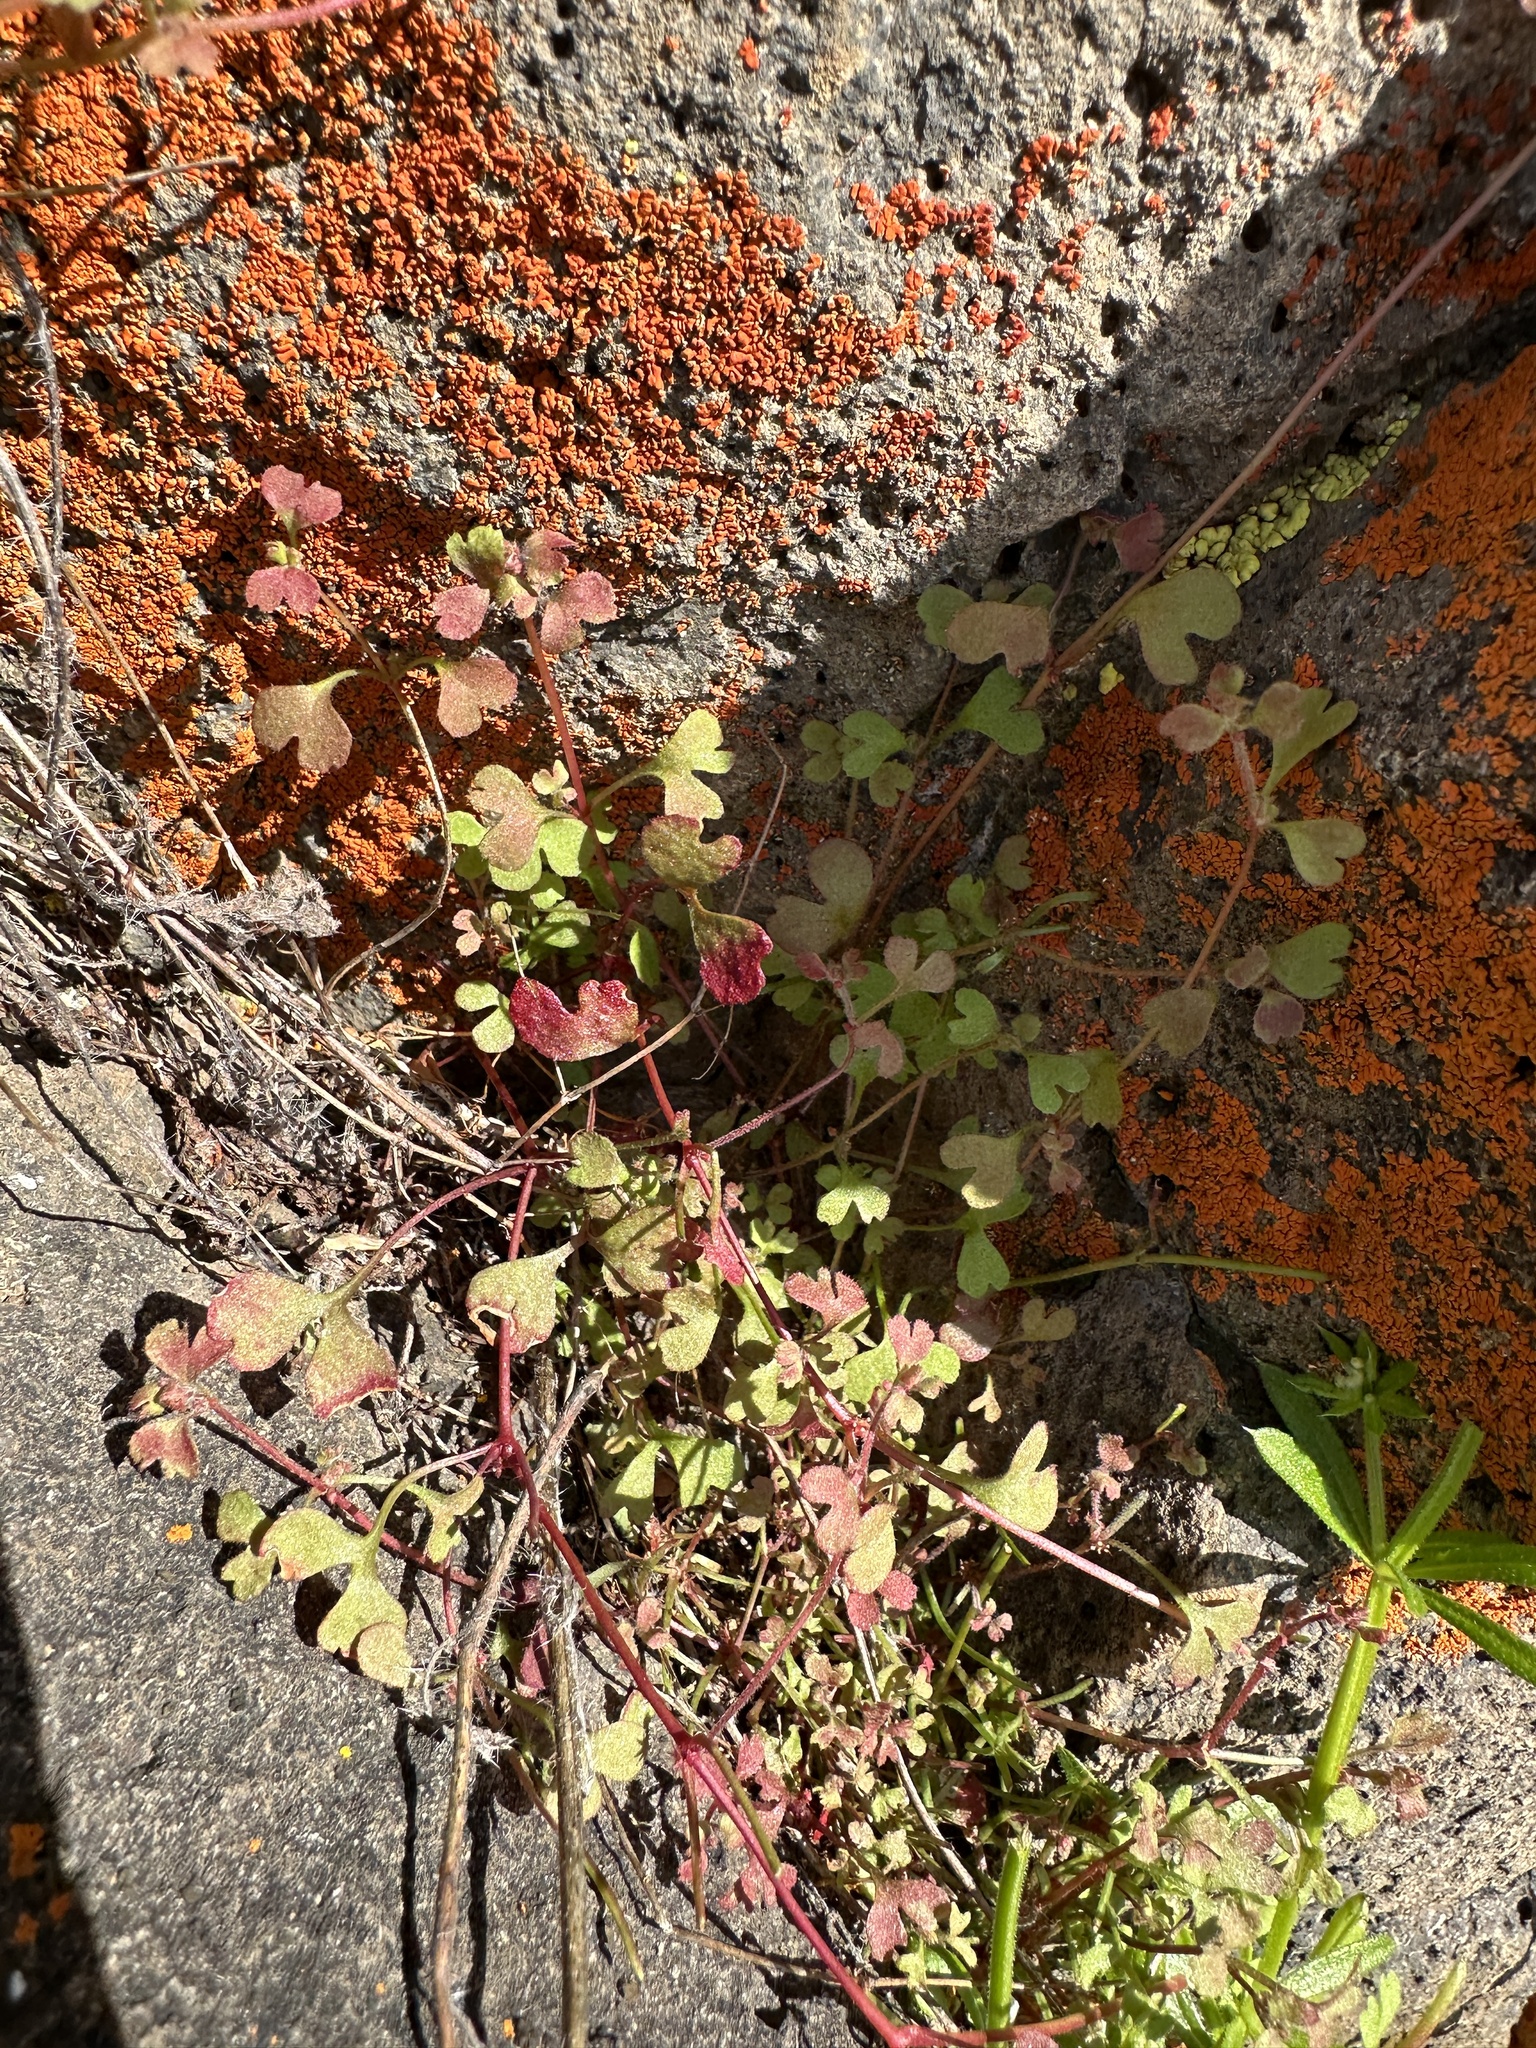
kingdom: Plantae
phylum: Tracheophyta
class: Magnoliopsida
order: Caryophyllales
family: Polygonaceae
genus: Pterostegia
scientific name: Pterostegia drymarioides
